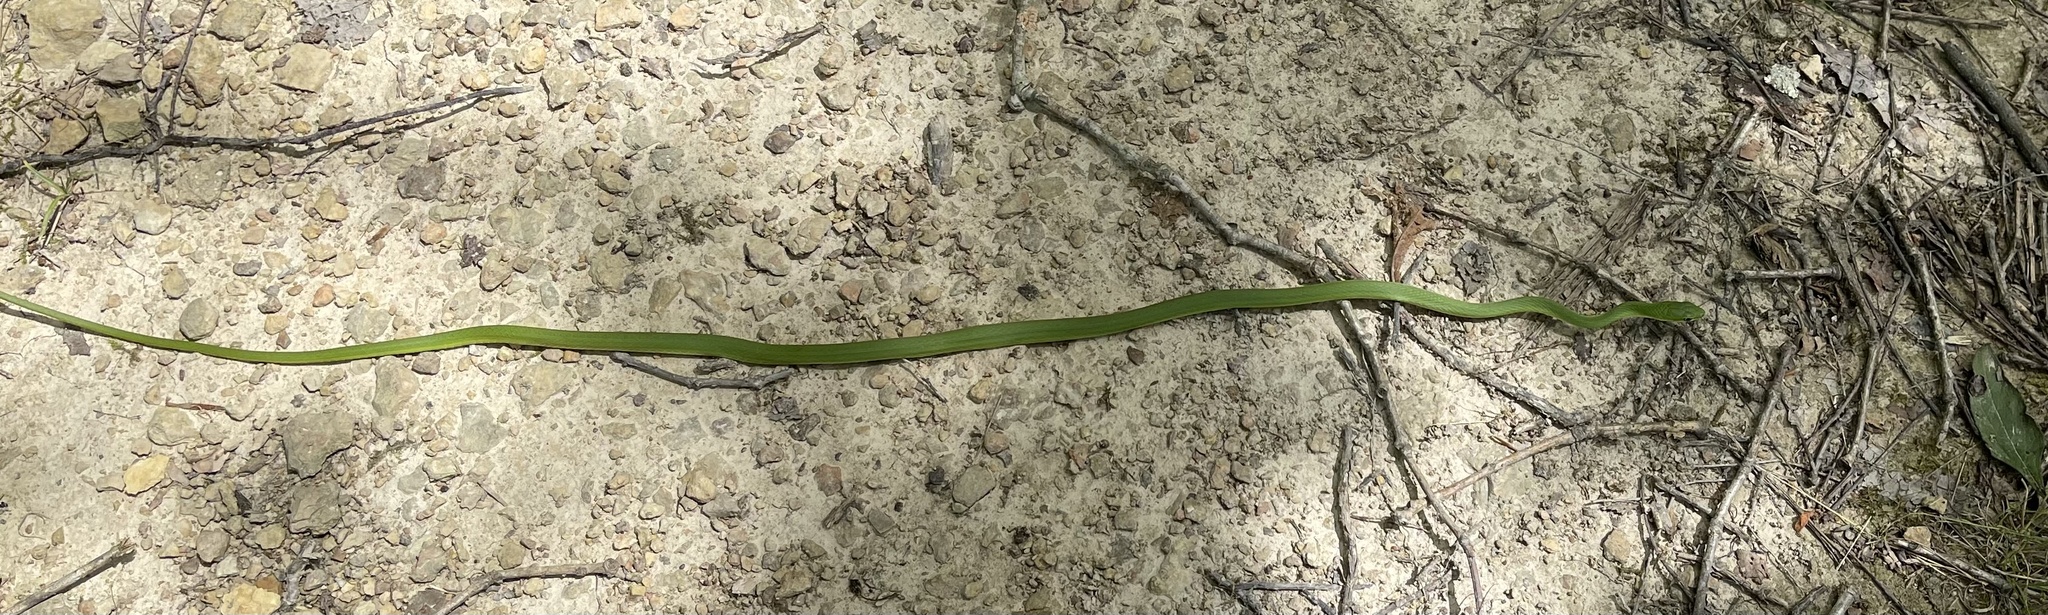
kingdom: Animalia
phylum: Chordata
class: Squamata
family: Colubridae
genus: Opheodrys
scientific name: Opheodrys aestivus
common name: Rough greensnake
